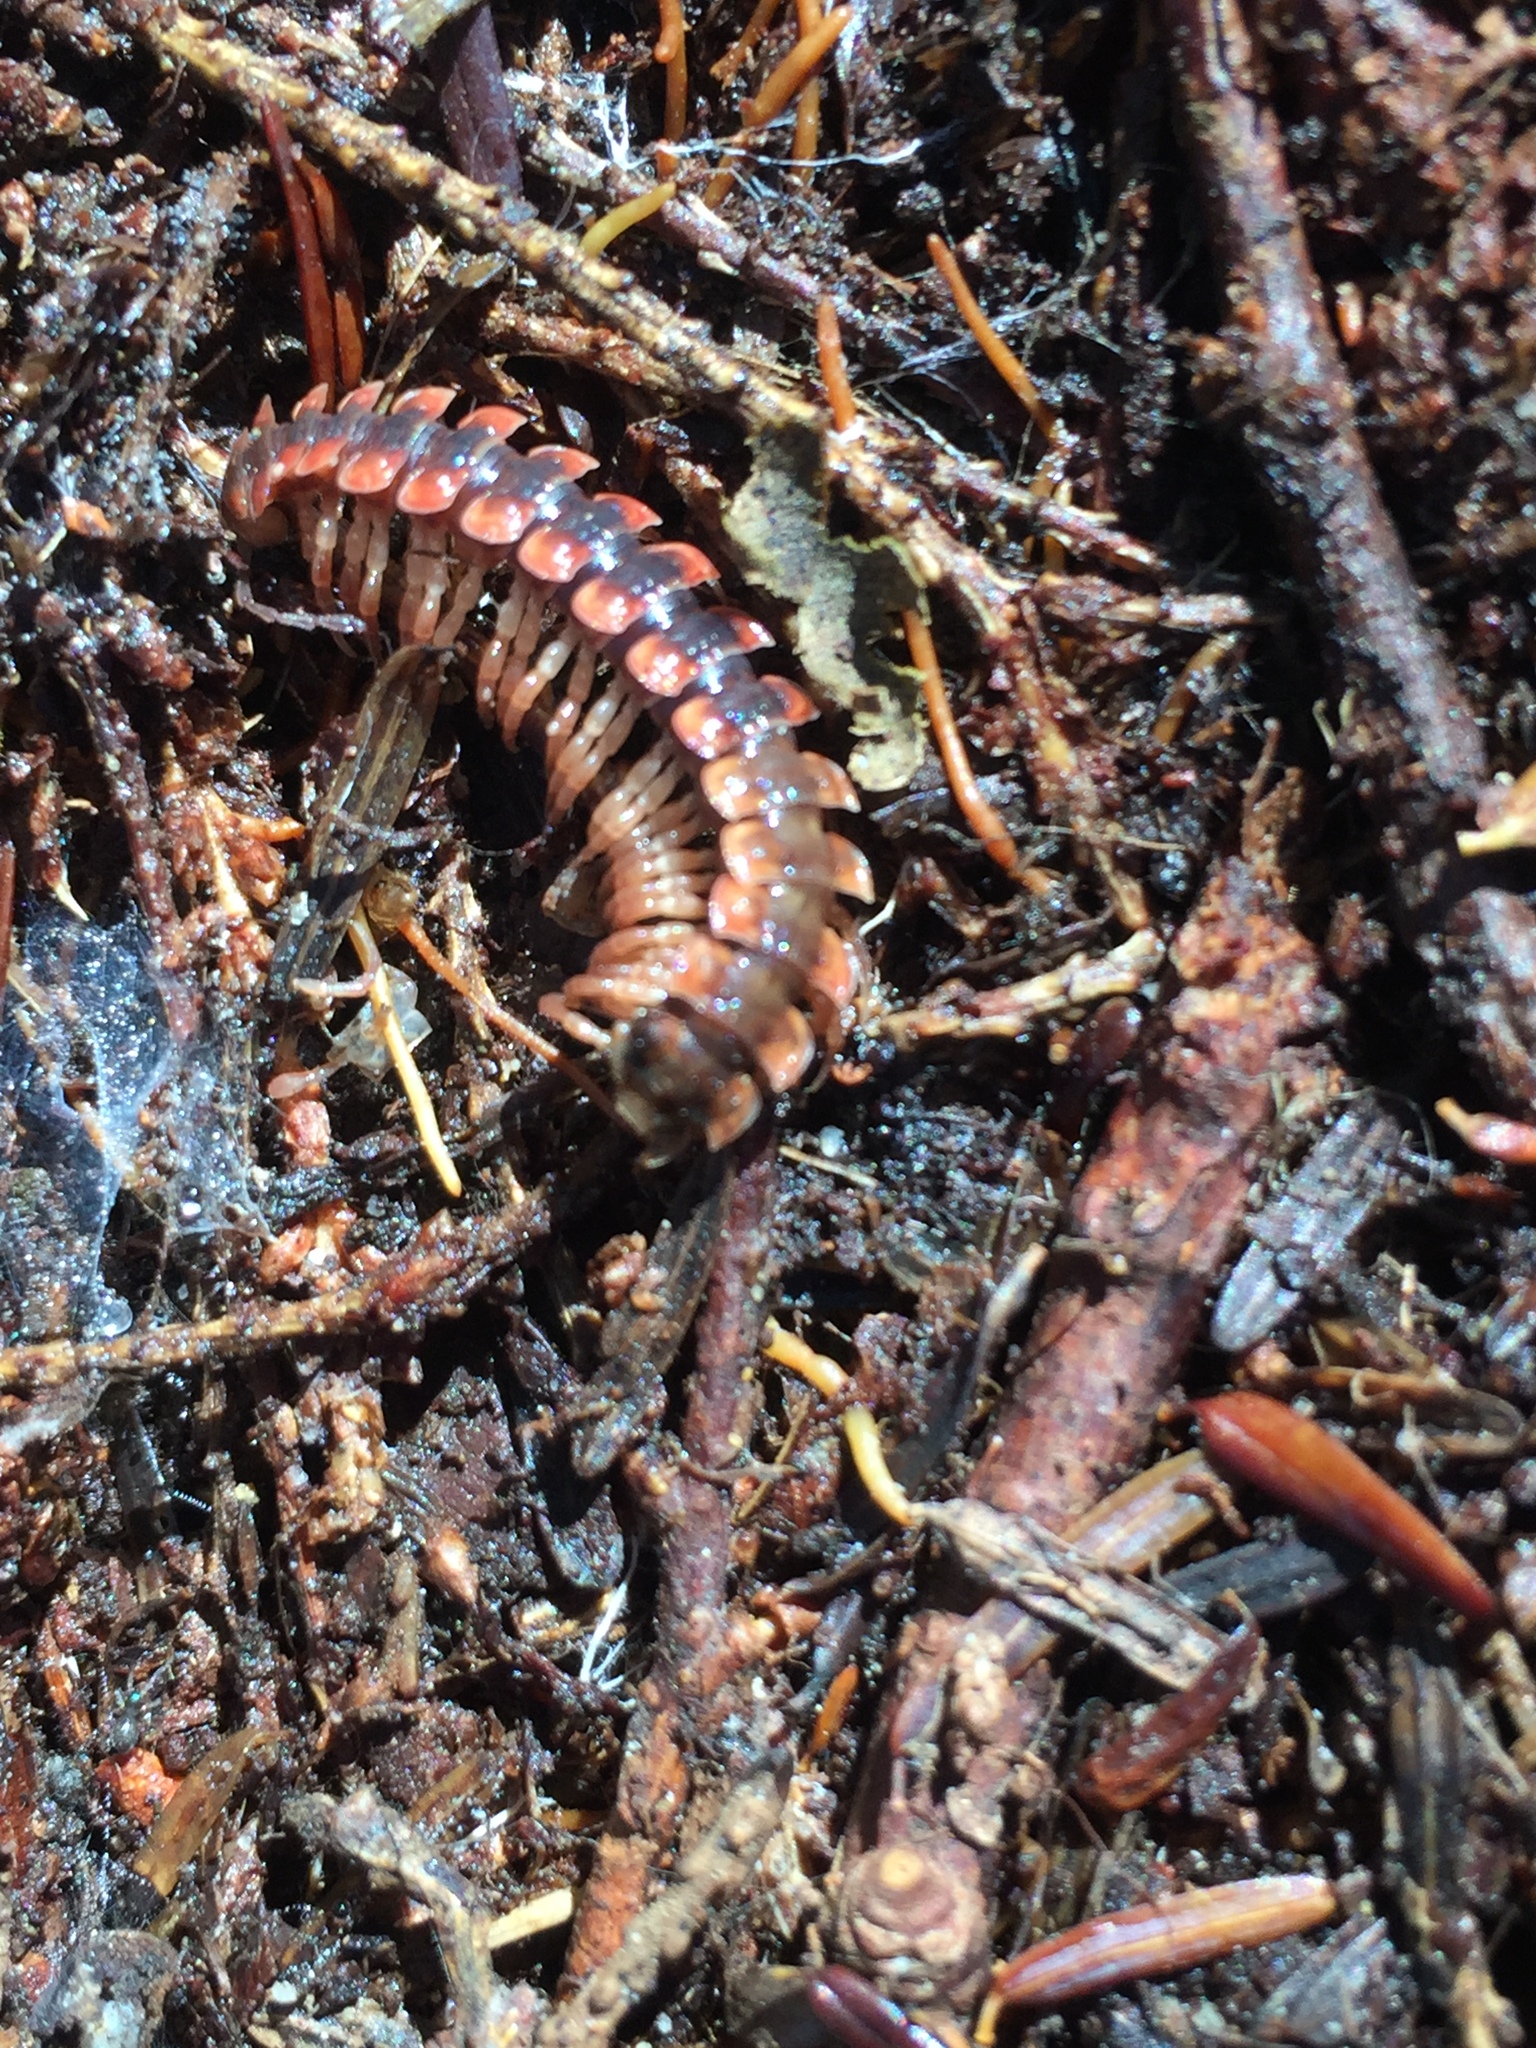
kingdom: Animalia
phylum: Arthropoda
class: Diplopoda
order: Polydesmida
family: Polydesmidae
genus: Pseudopolydesmus
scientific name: Pseudopolydesmus canadensis
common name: Canadian flat-back millipede
